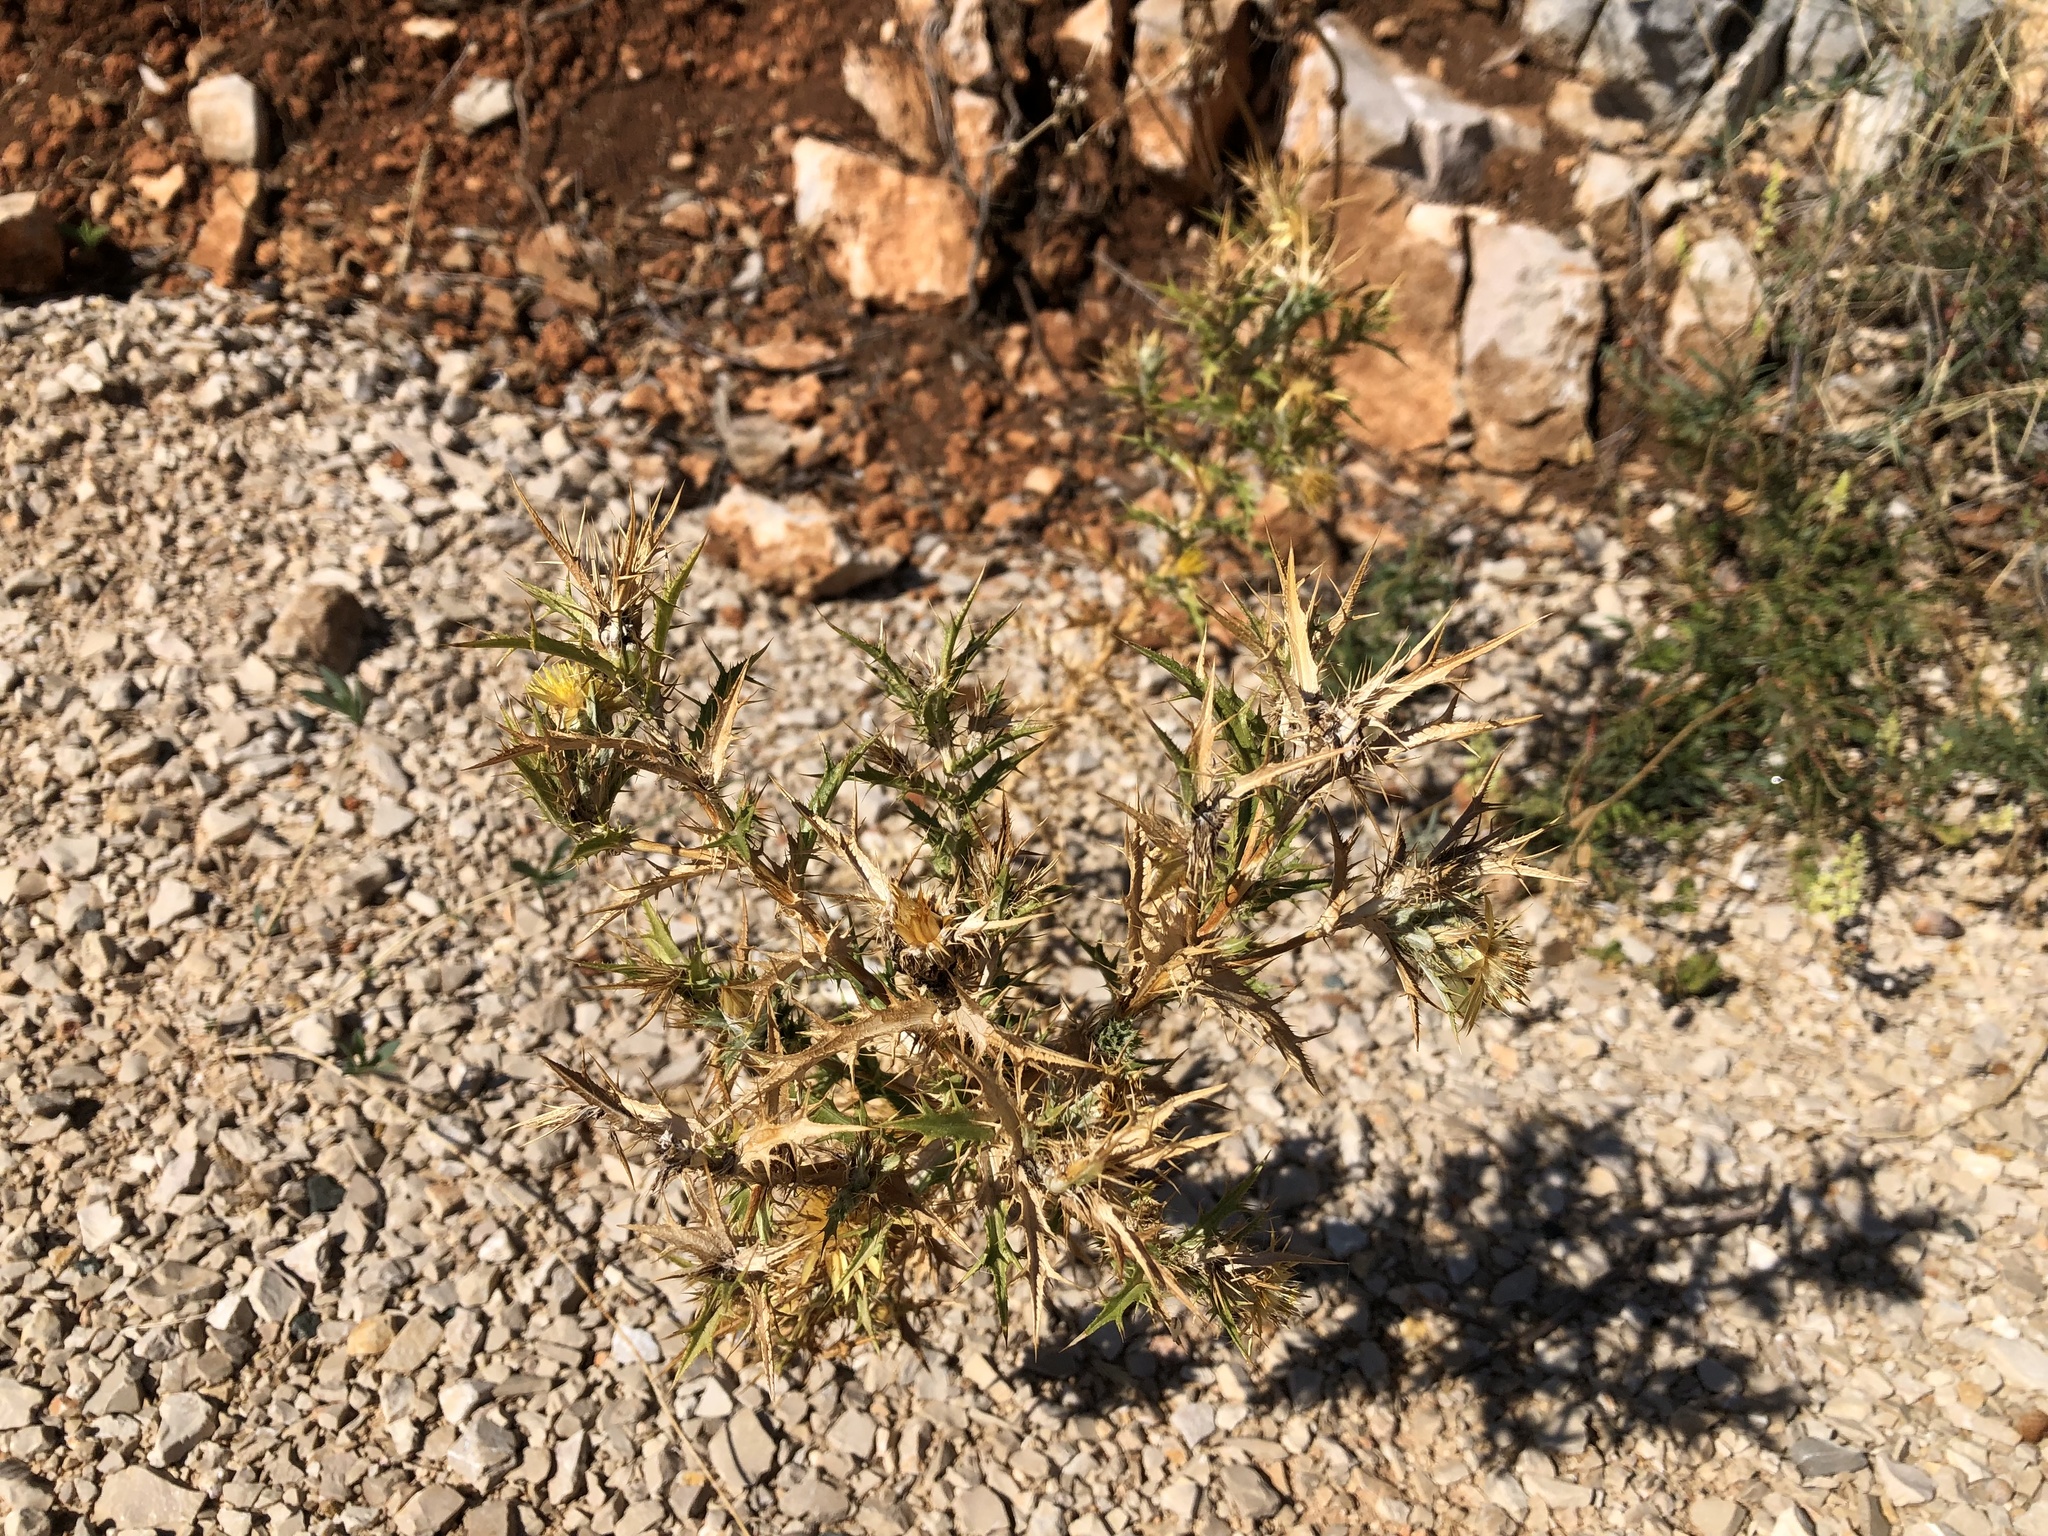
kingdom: Plantae
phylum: Tracheophyta
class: Magnoliopsida
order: Asterales
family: Asteraceae
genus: Carthamus
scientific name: Carthamus lanatus
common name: Downy safflower
